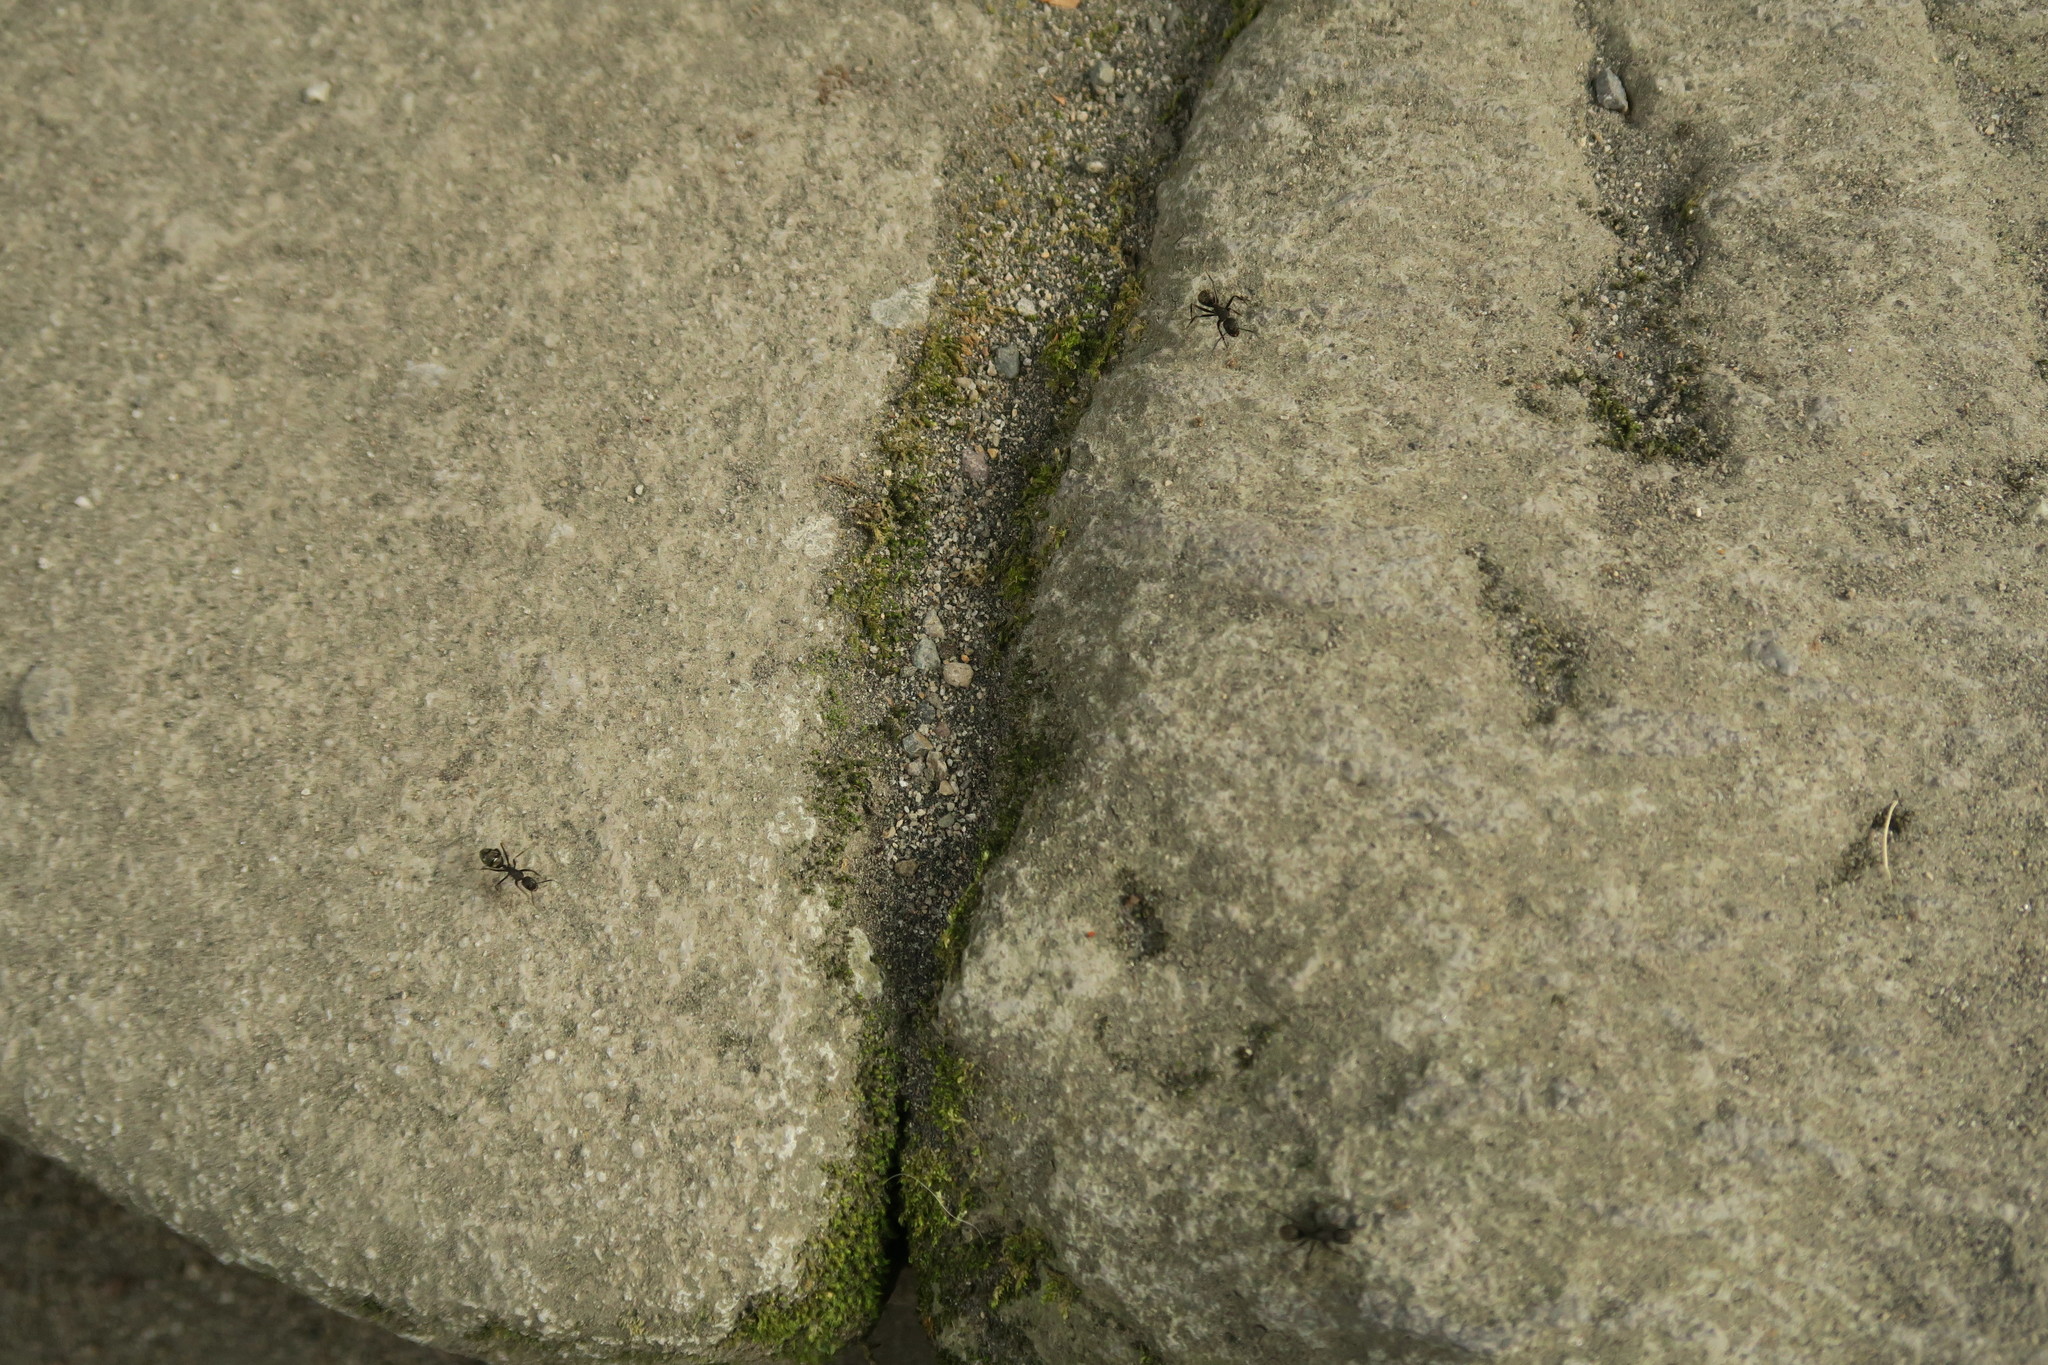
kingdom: Animalia
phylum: Arthropoda
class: Insecta
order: Hymenoptera
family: Formicidae
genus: Camponotus
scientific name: Camponotus japonicus
